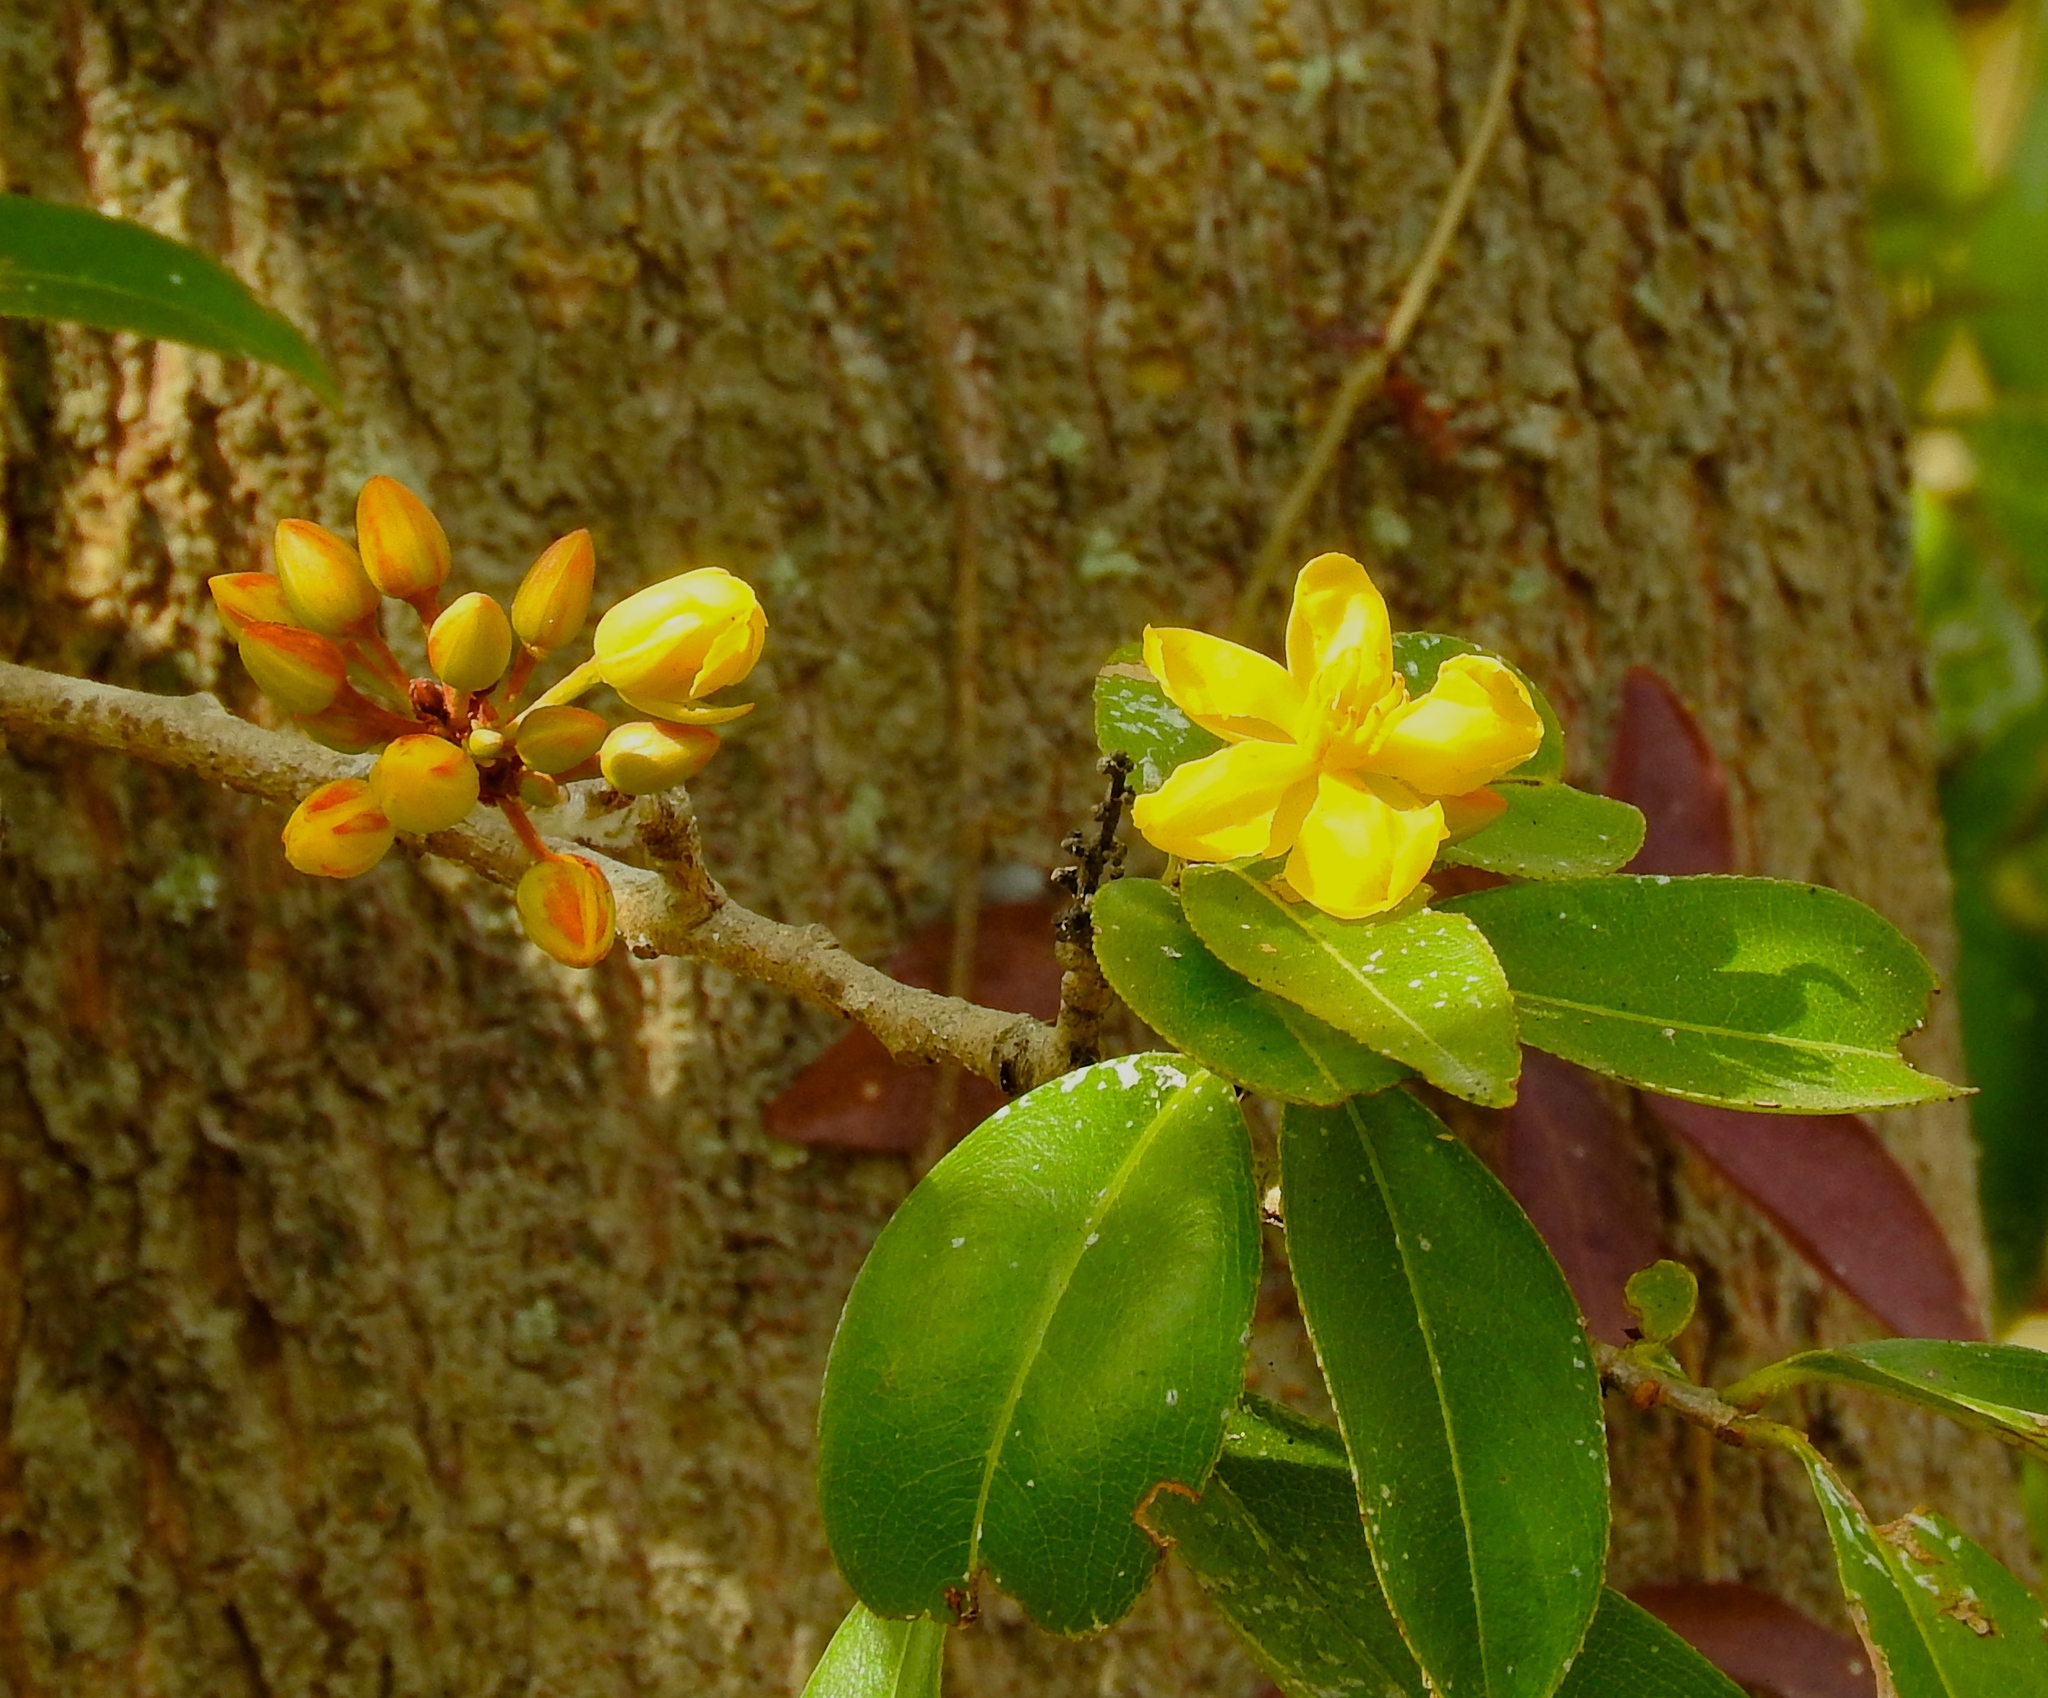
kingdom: Plantae
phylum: Tracheophyta
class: Magnoliopsida
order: Malpighiales
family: Ochnaceae
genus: Ouratea
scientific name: Ouratea mexicana
